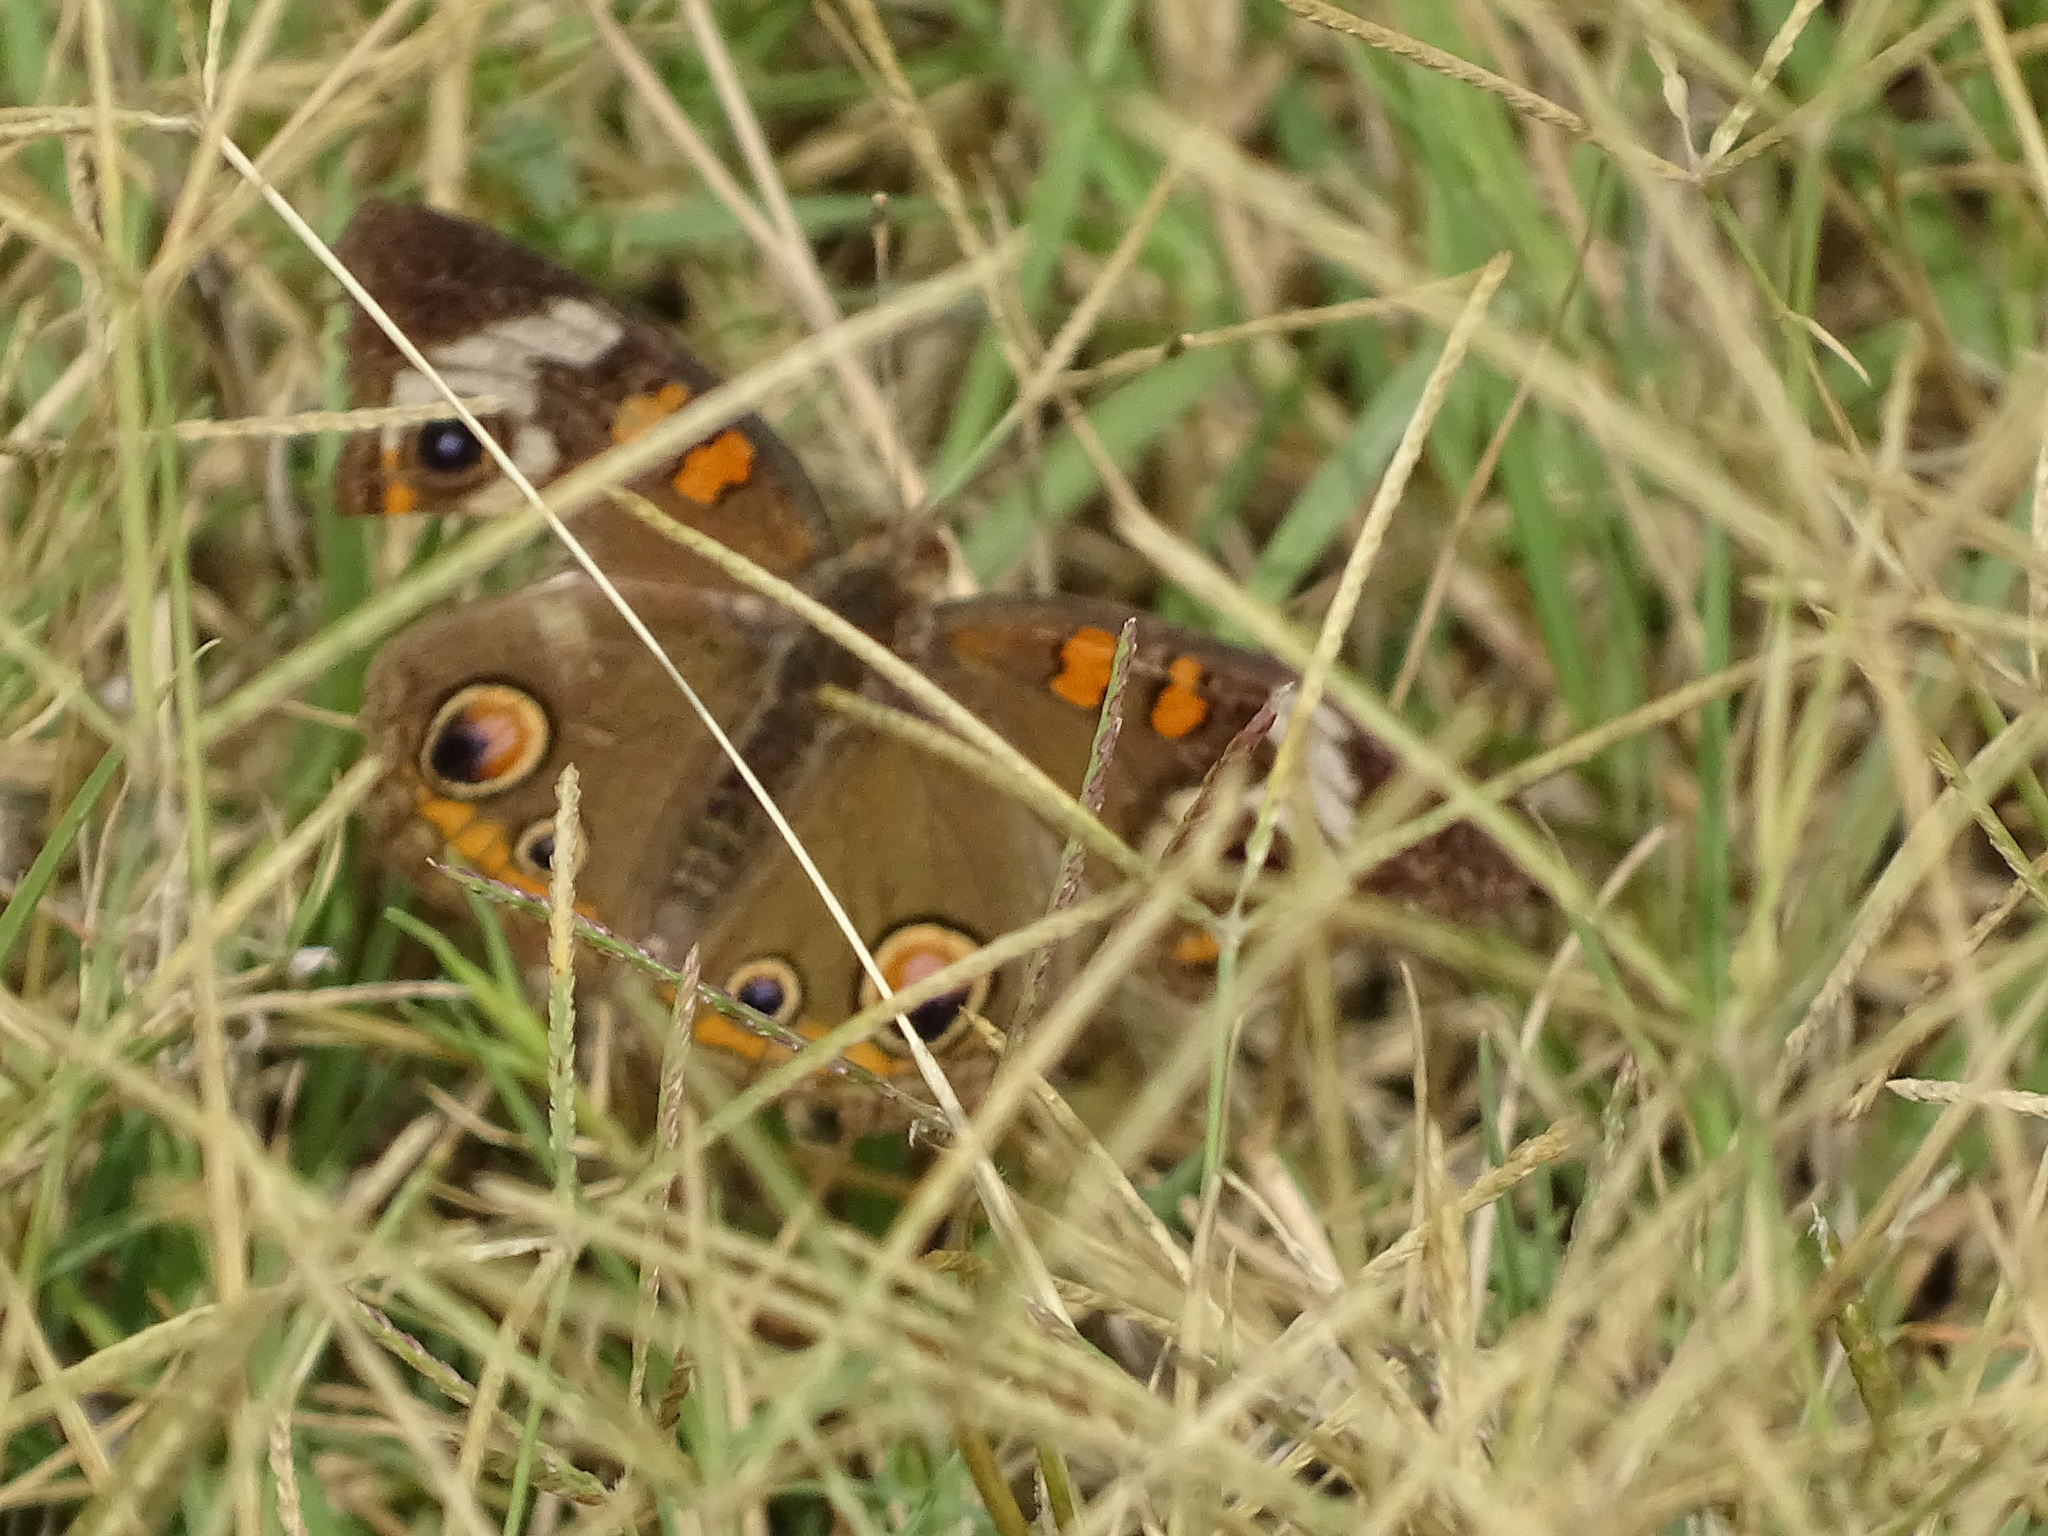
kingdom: Animalia
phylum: Arthropoda
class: Insecta
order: Lepidoptera
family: Nymphalidae
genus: Junonia
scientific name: Junonia coenia
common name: Common buckeye
